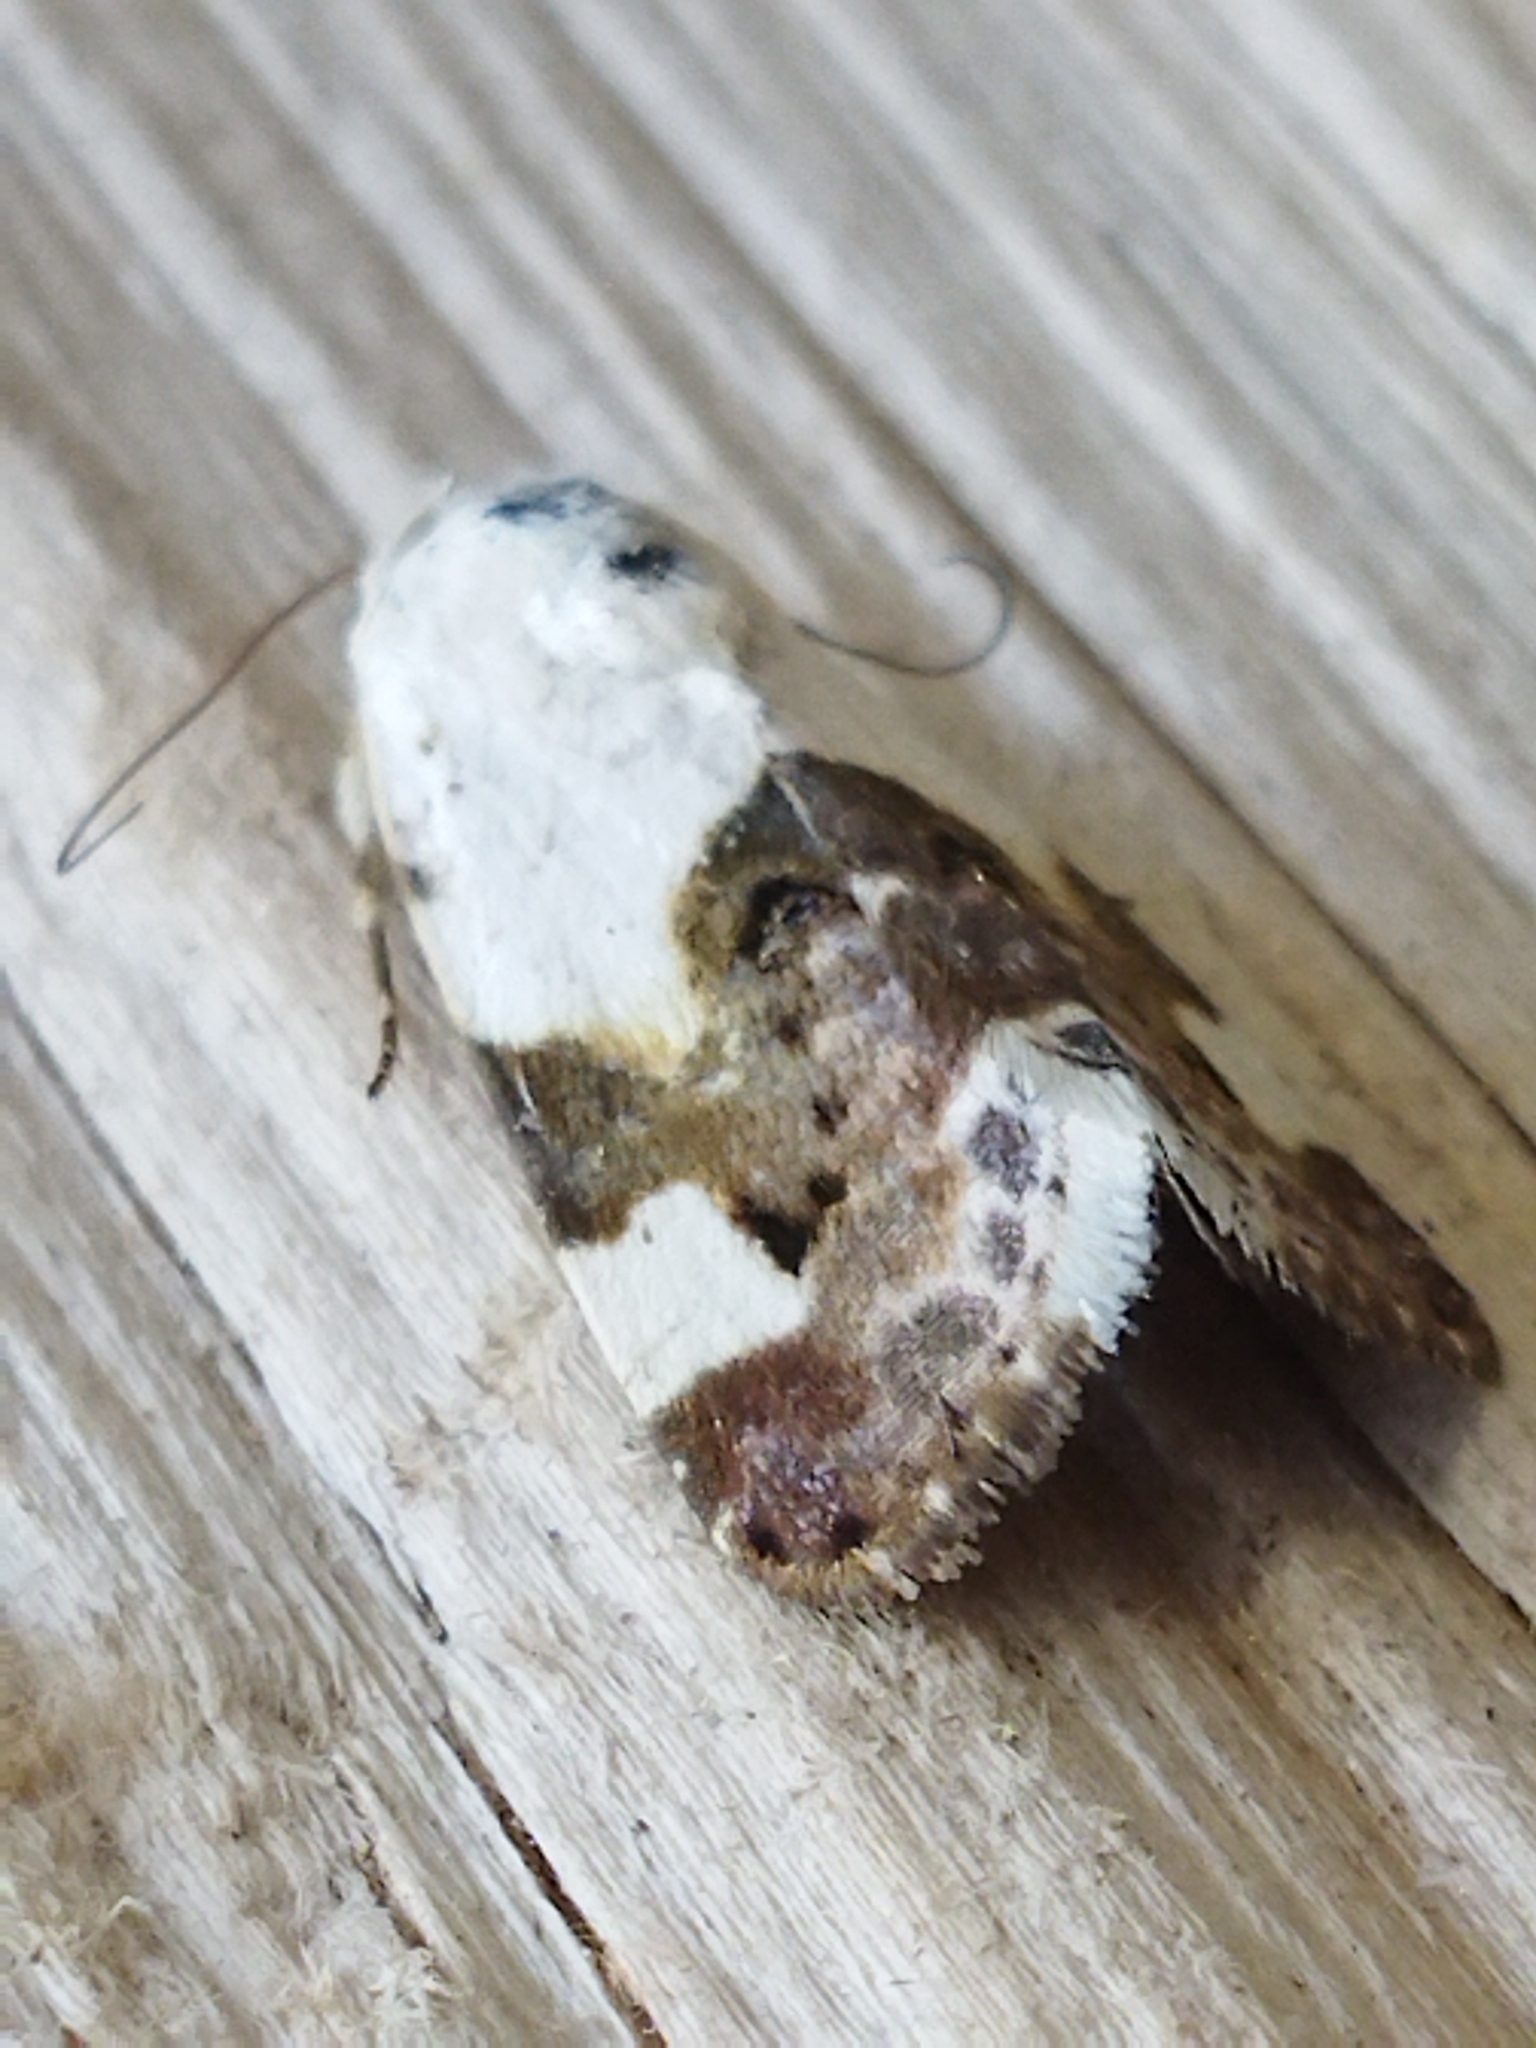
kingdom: Animalia
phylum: Arthropoda
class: Insecta
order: Lepidoptera
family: Noctuidae
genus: Acontia
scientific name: Acontia lucida
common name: Pale shoulder
